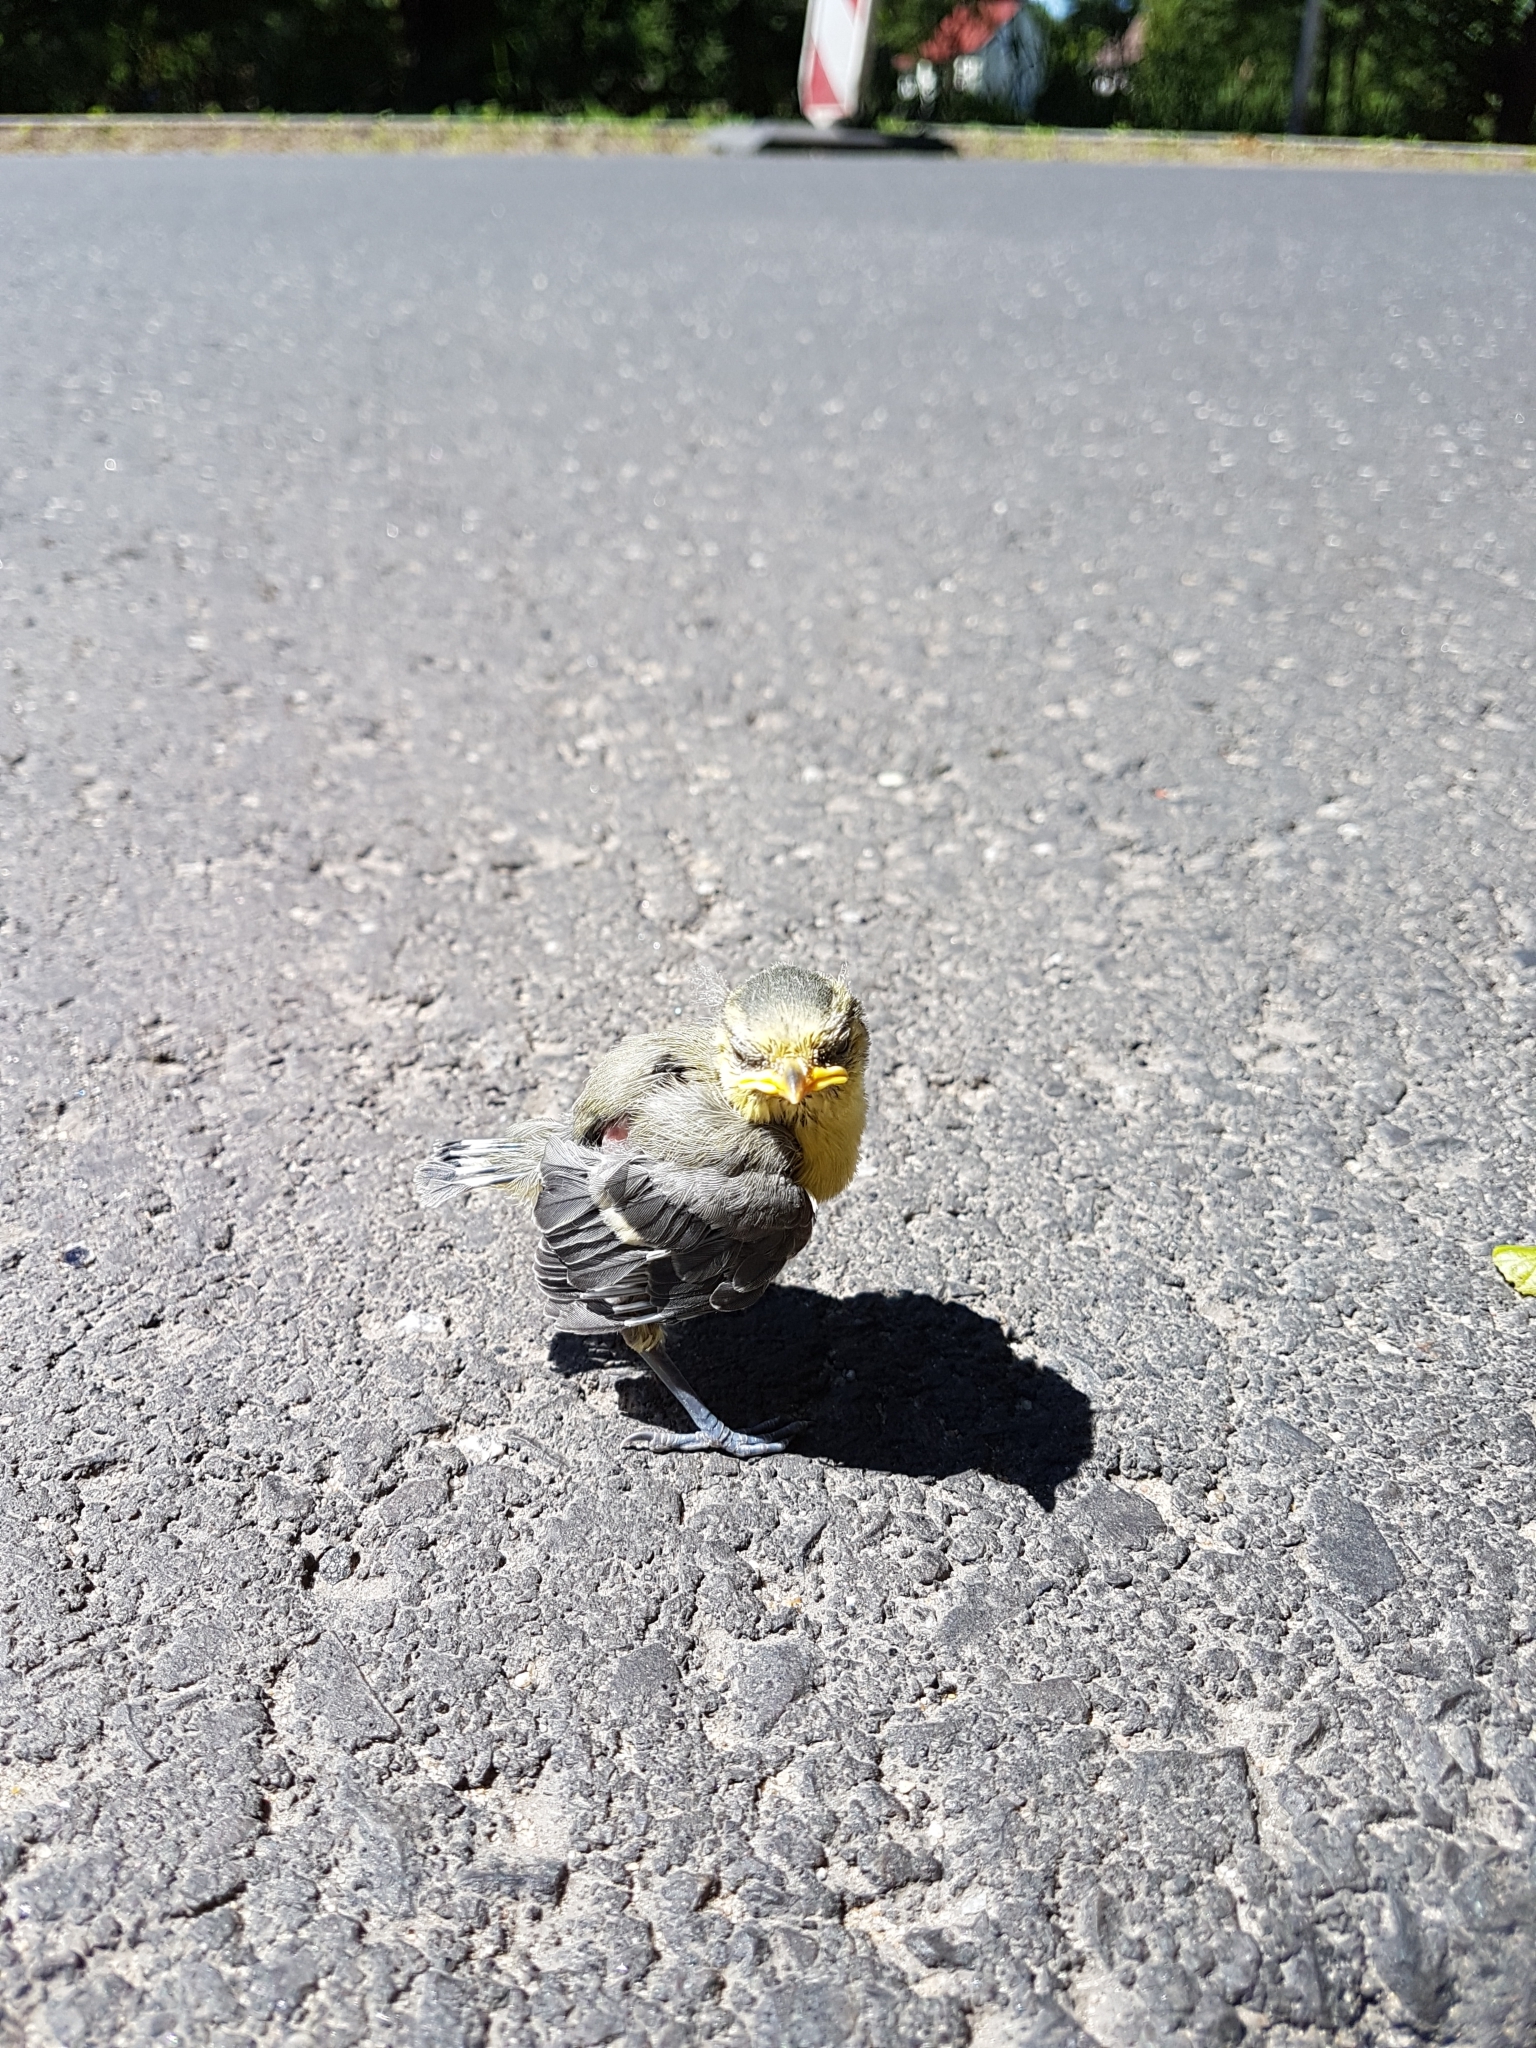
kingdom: Animalia
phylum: Chordata
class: Aves
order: Passeriformes
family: Paridae
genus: Cyanistes
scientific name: Cyanistes caeruleus
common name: Eurasian blue tit
